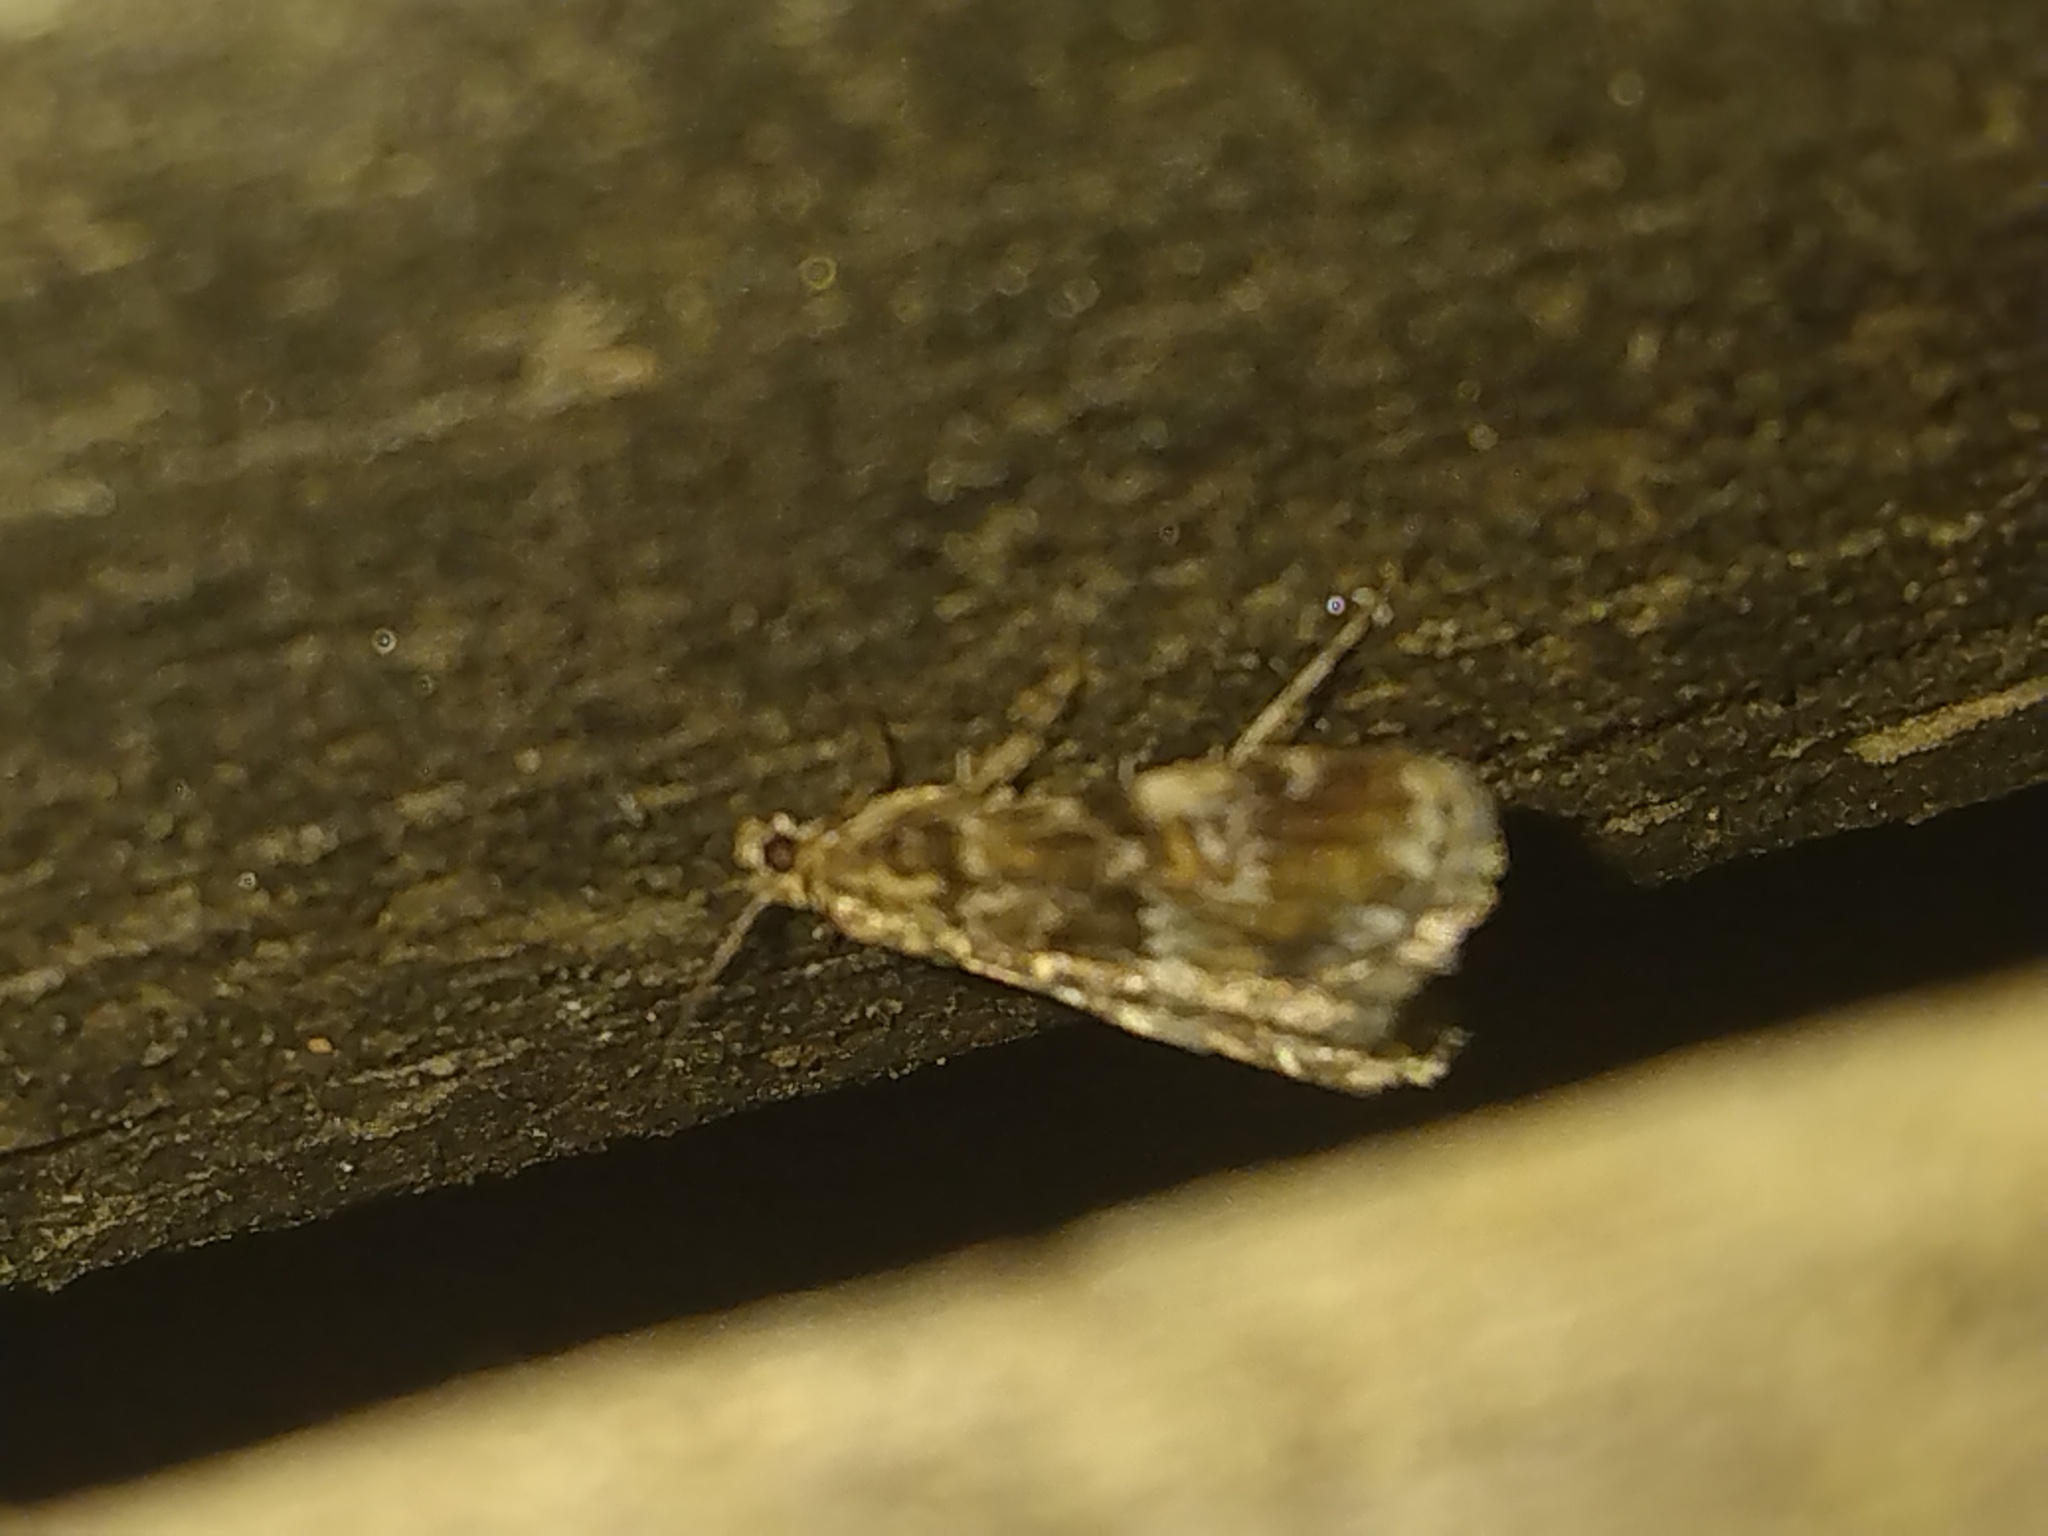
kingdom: Animalia
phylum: Arthropoda
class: Insecta
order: Lepidoptera
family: Crambidae
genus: Elophila
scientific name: Elophila obliteralis
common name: Waterlily leafcutter moth
